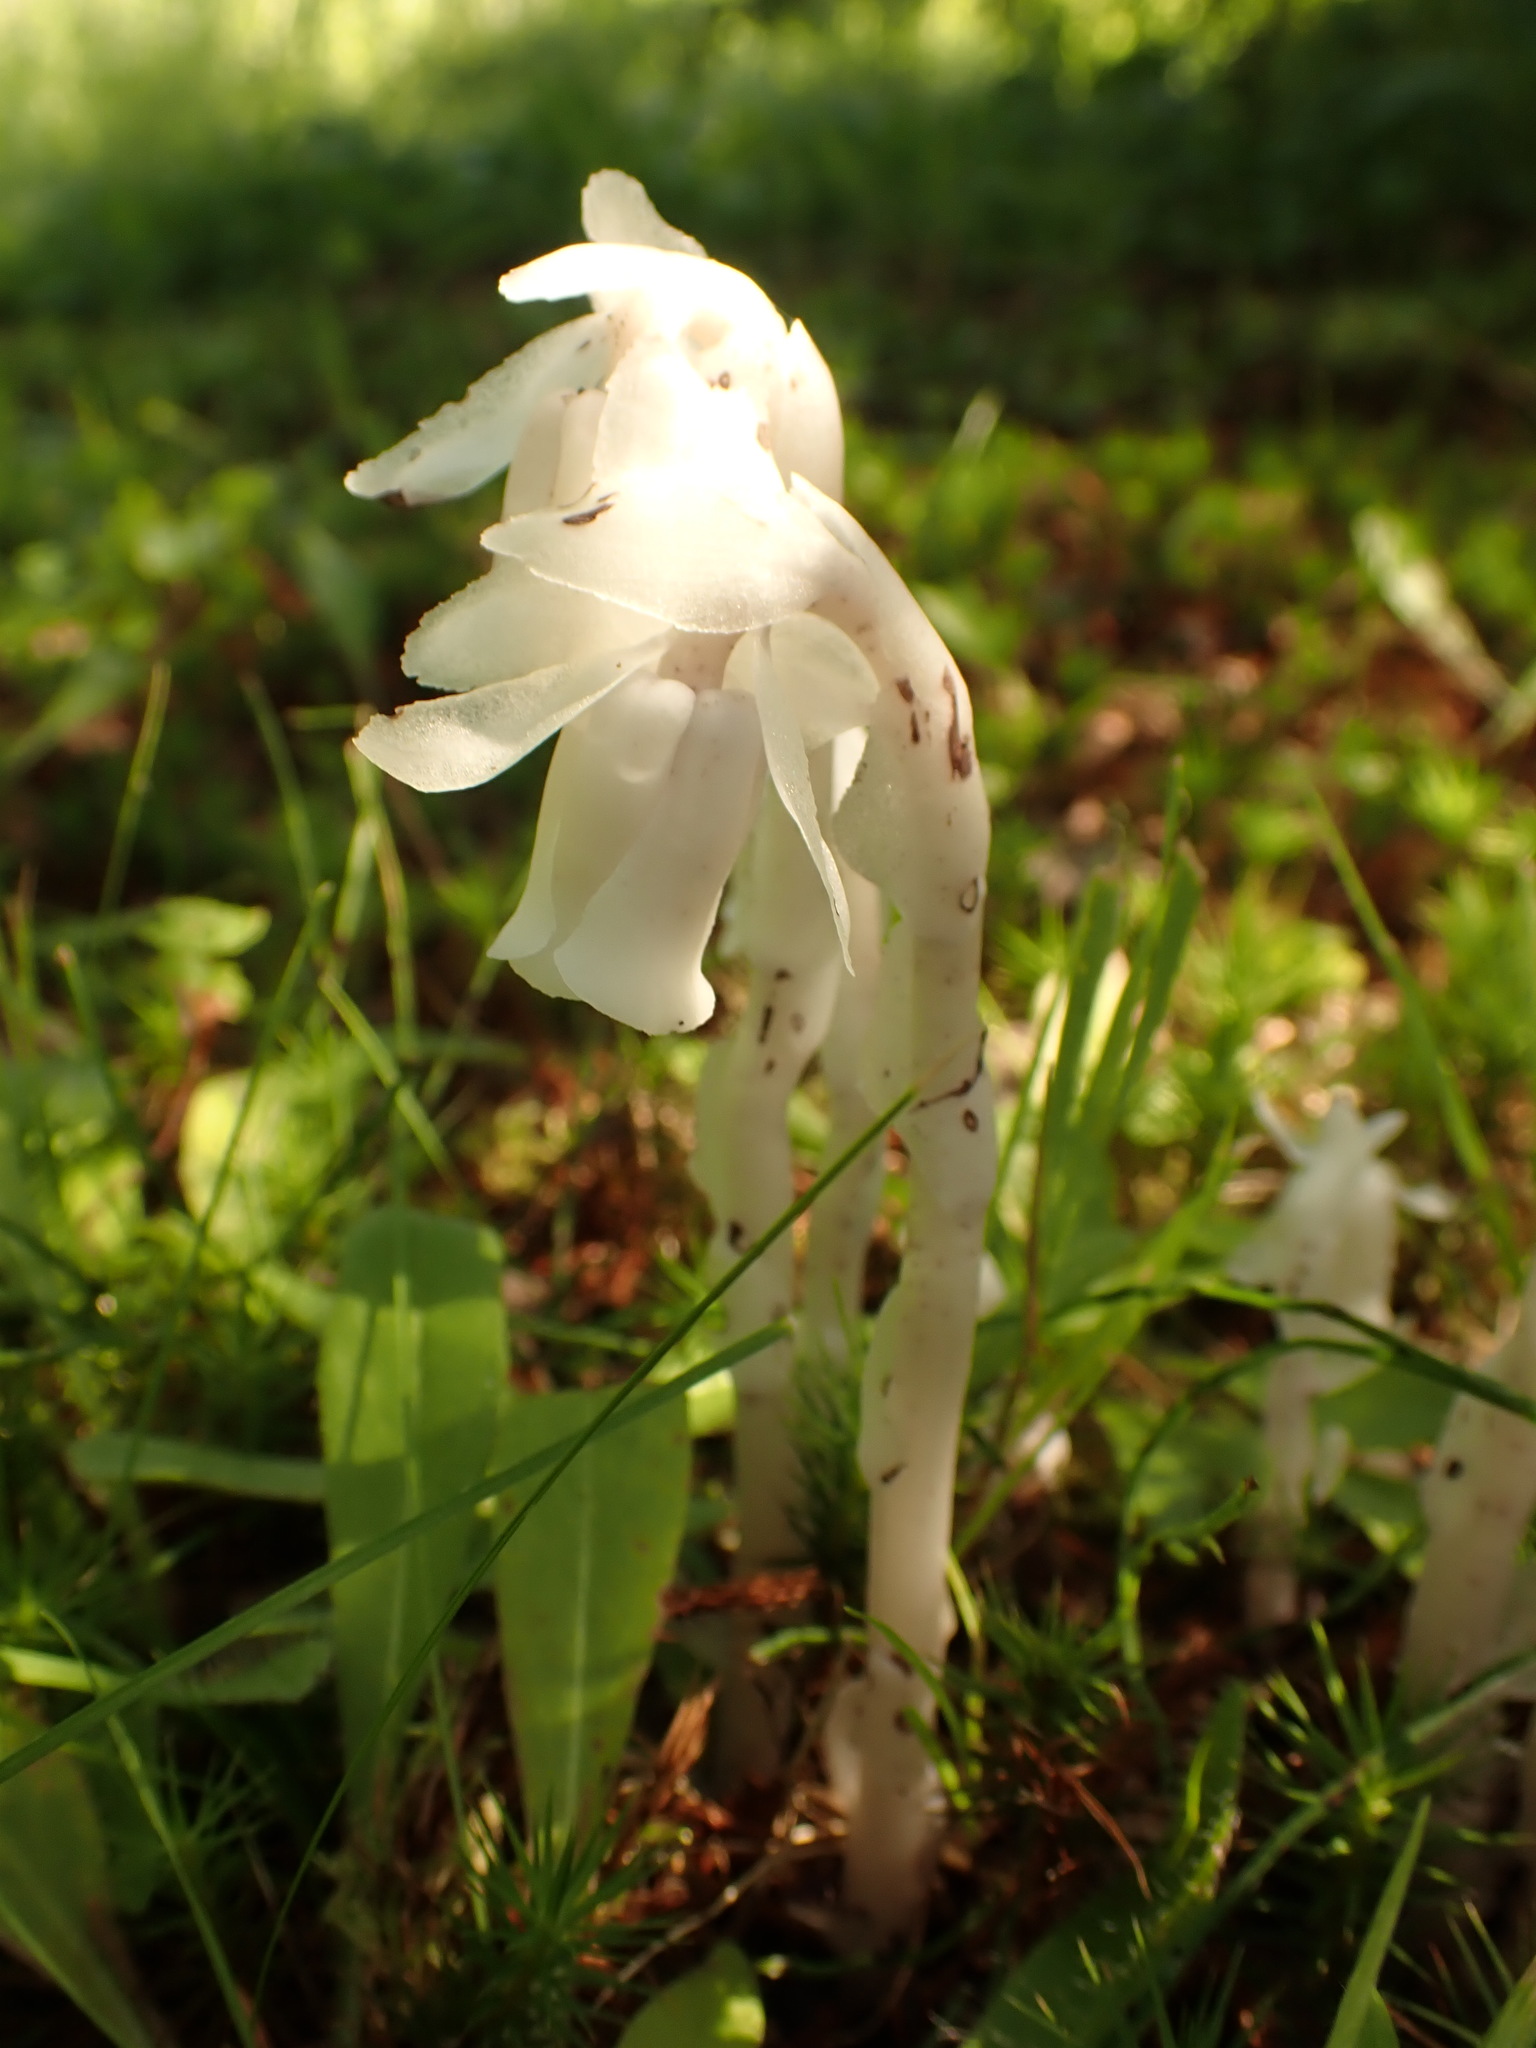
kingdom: Plantae
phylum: Tracheophyta
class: Magnoliopsida
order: Ericales
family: Ericaceae
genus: Monotropa
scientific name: Monotropa uniflora
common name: Convulsion root
